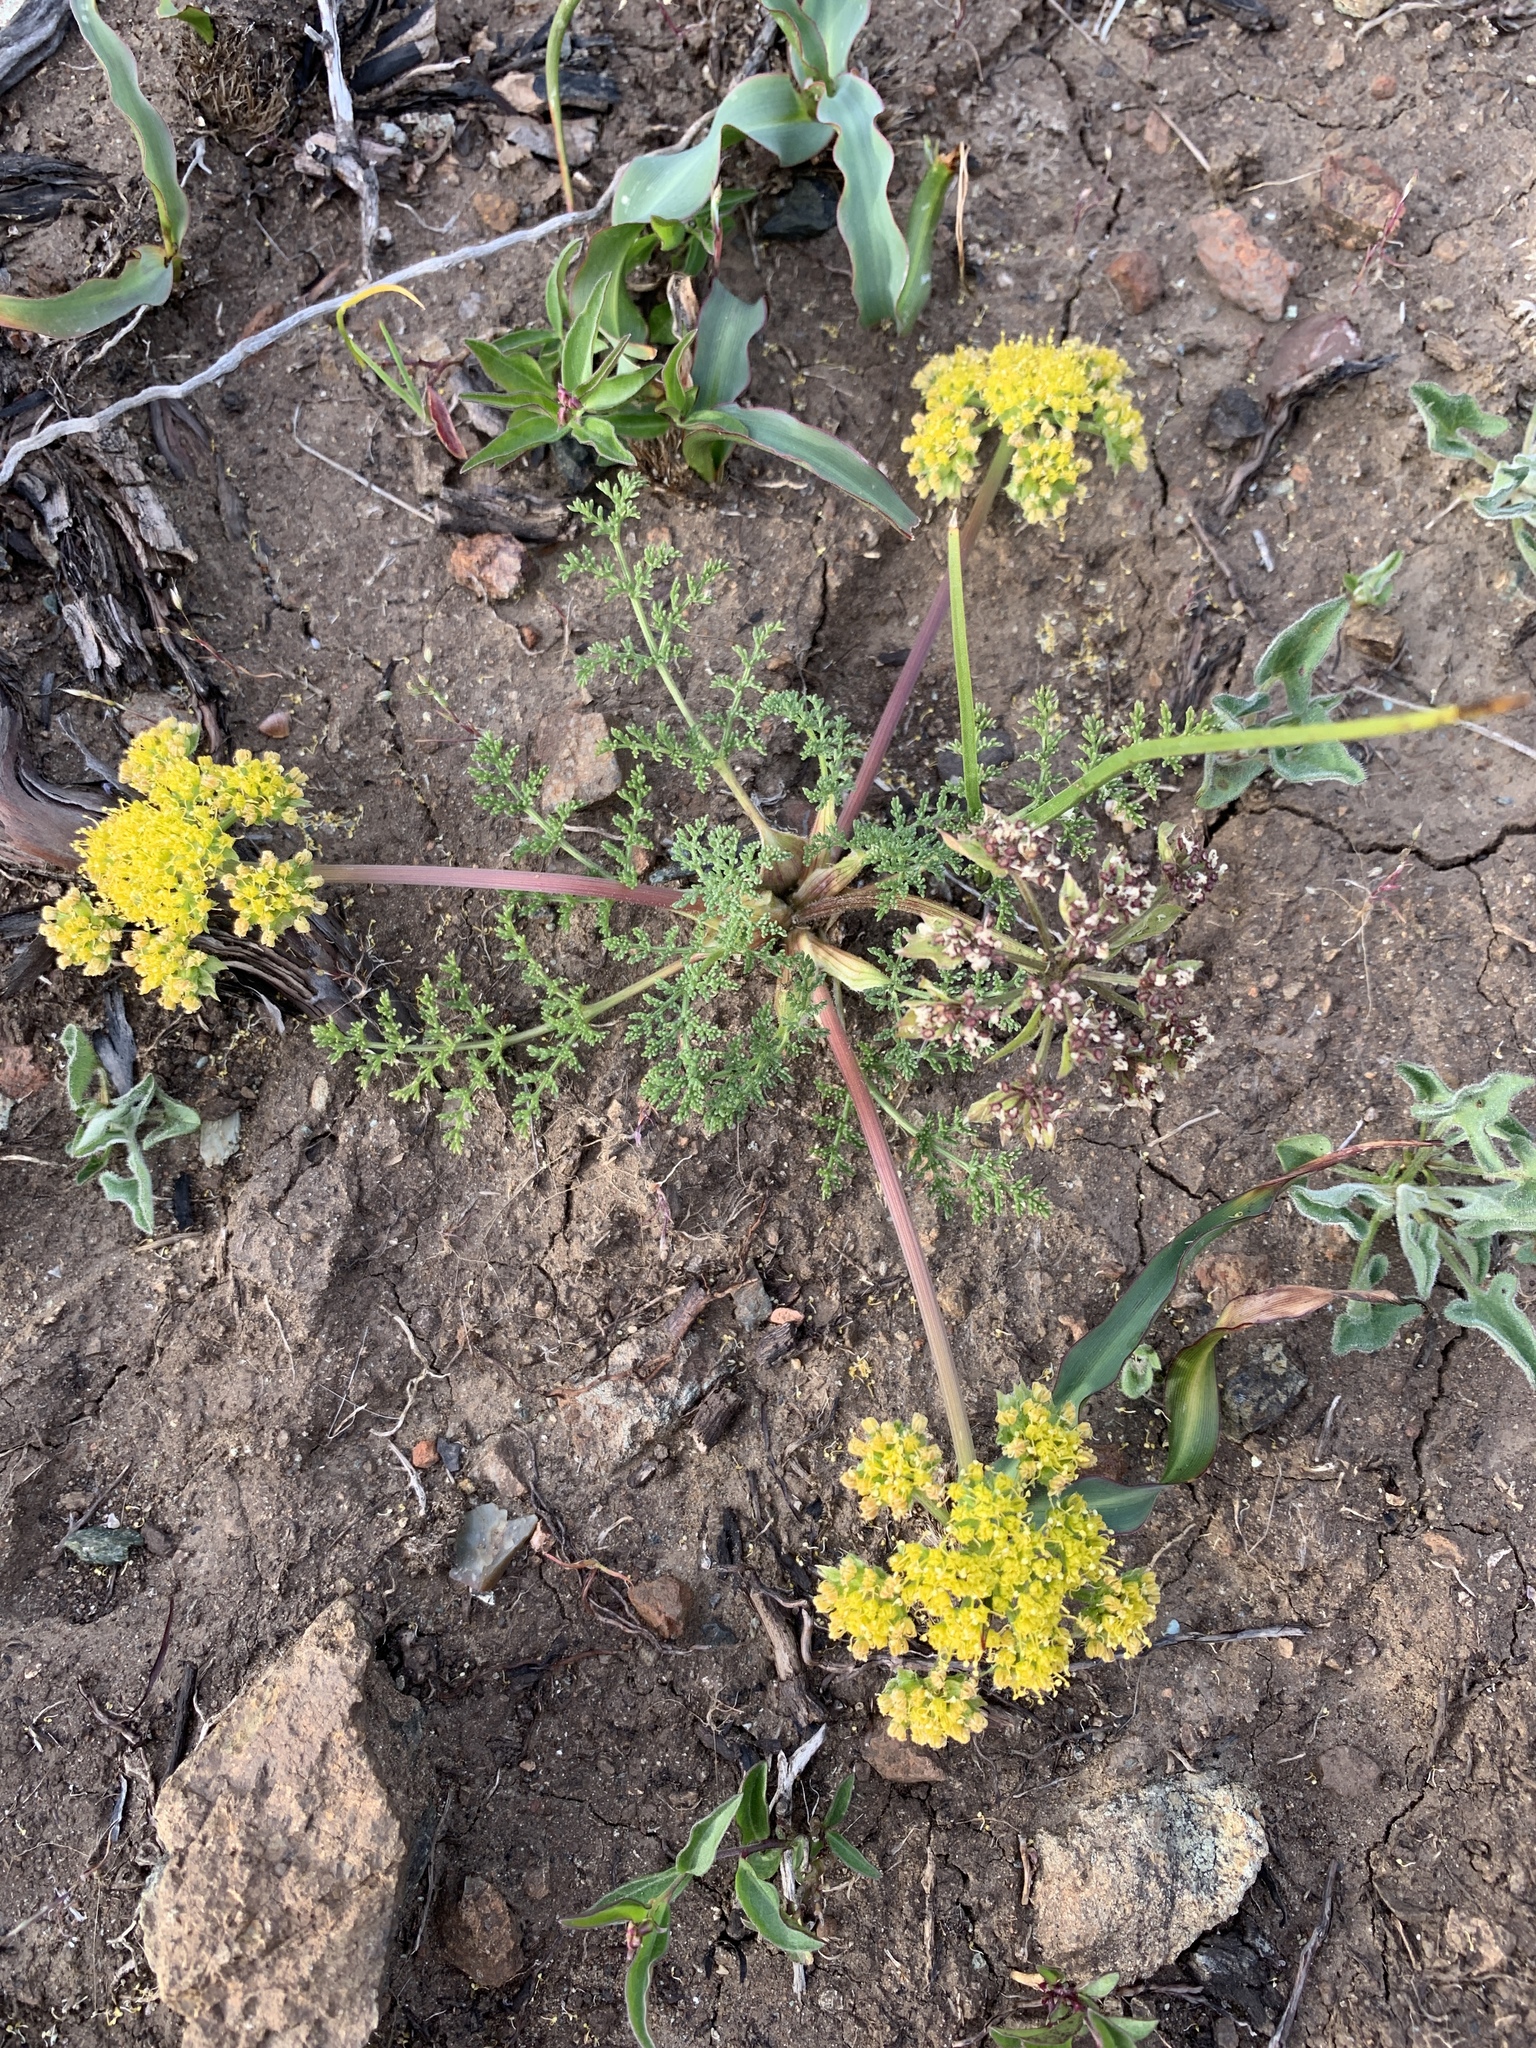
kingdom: Plantae
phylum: Tracheophyta
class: Magnoliopsida
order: Apiales
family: Apiaceae
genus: Lomatium
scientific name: Lomatium utriculatum
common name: Fine-leaf desert-parsley
